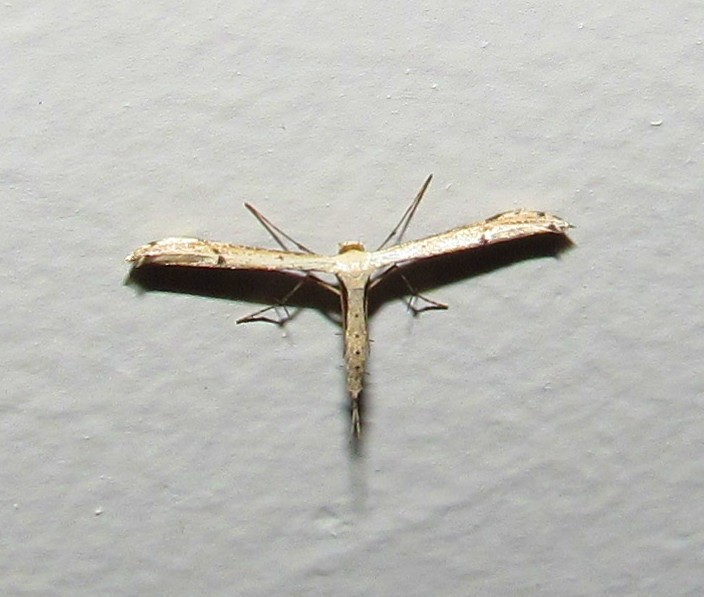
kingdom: Animalia
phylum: Arthropoda
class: Insecta
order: Lepidoptera
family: Pterophoridae
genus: Adaina
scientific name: Adaina ambrosiae
